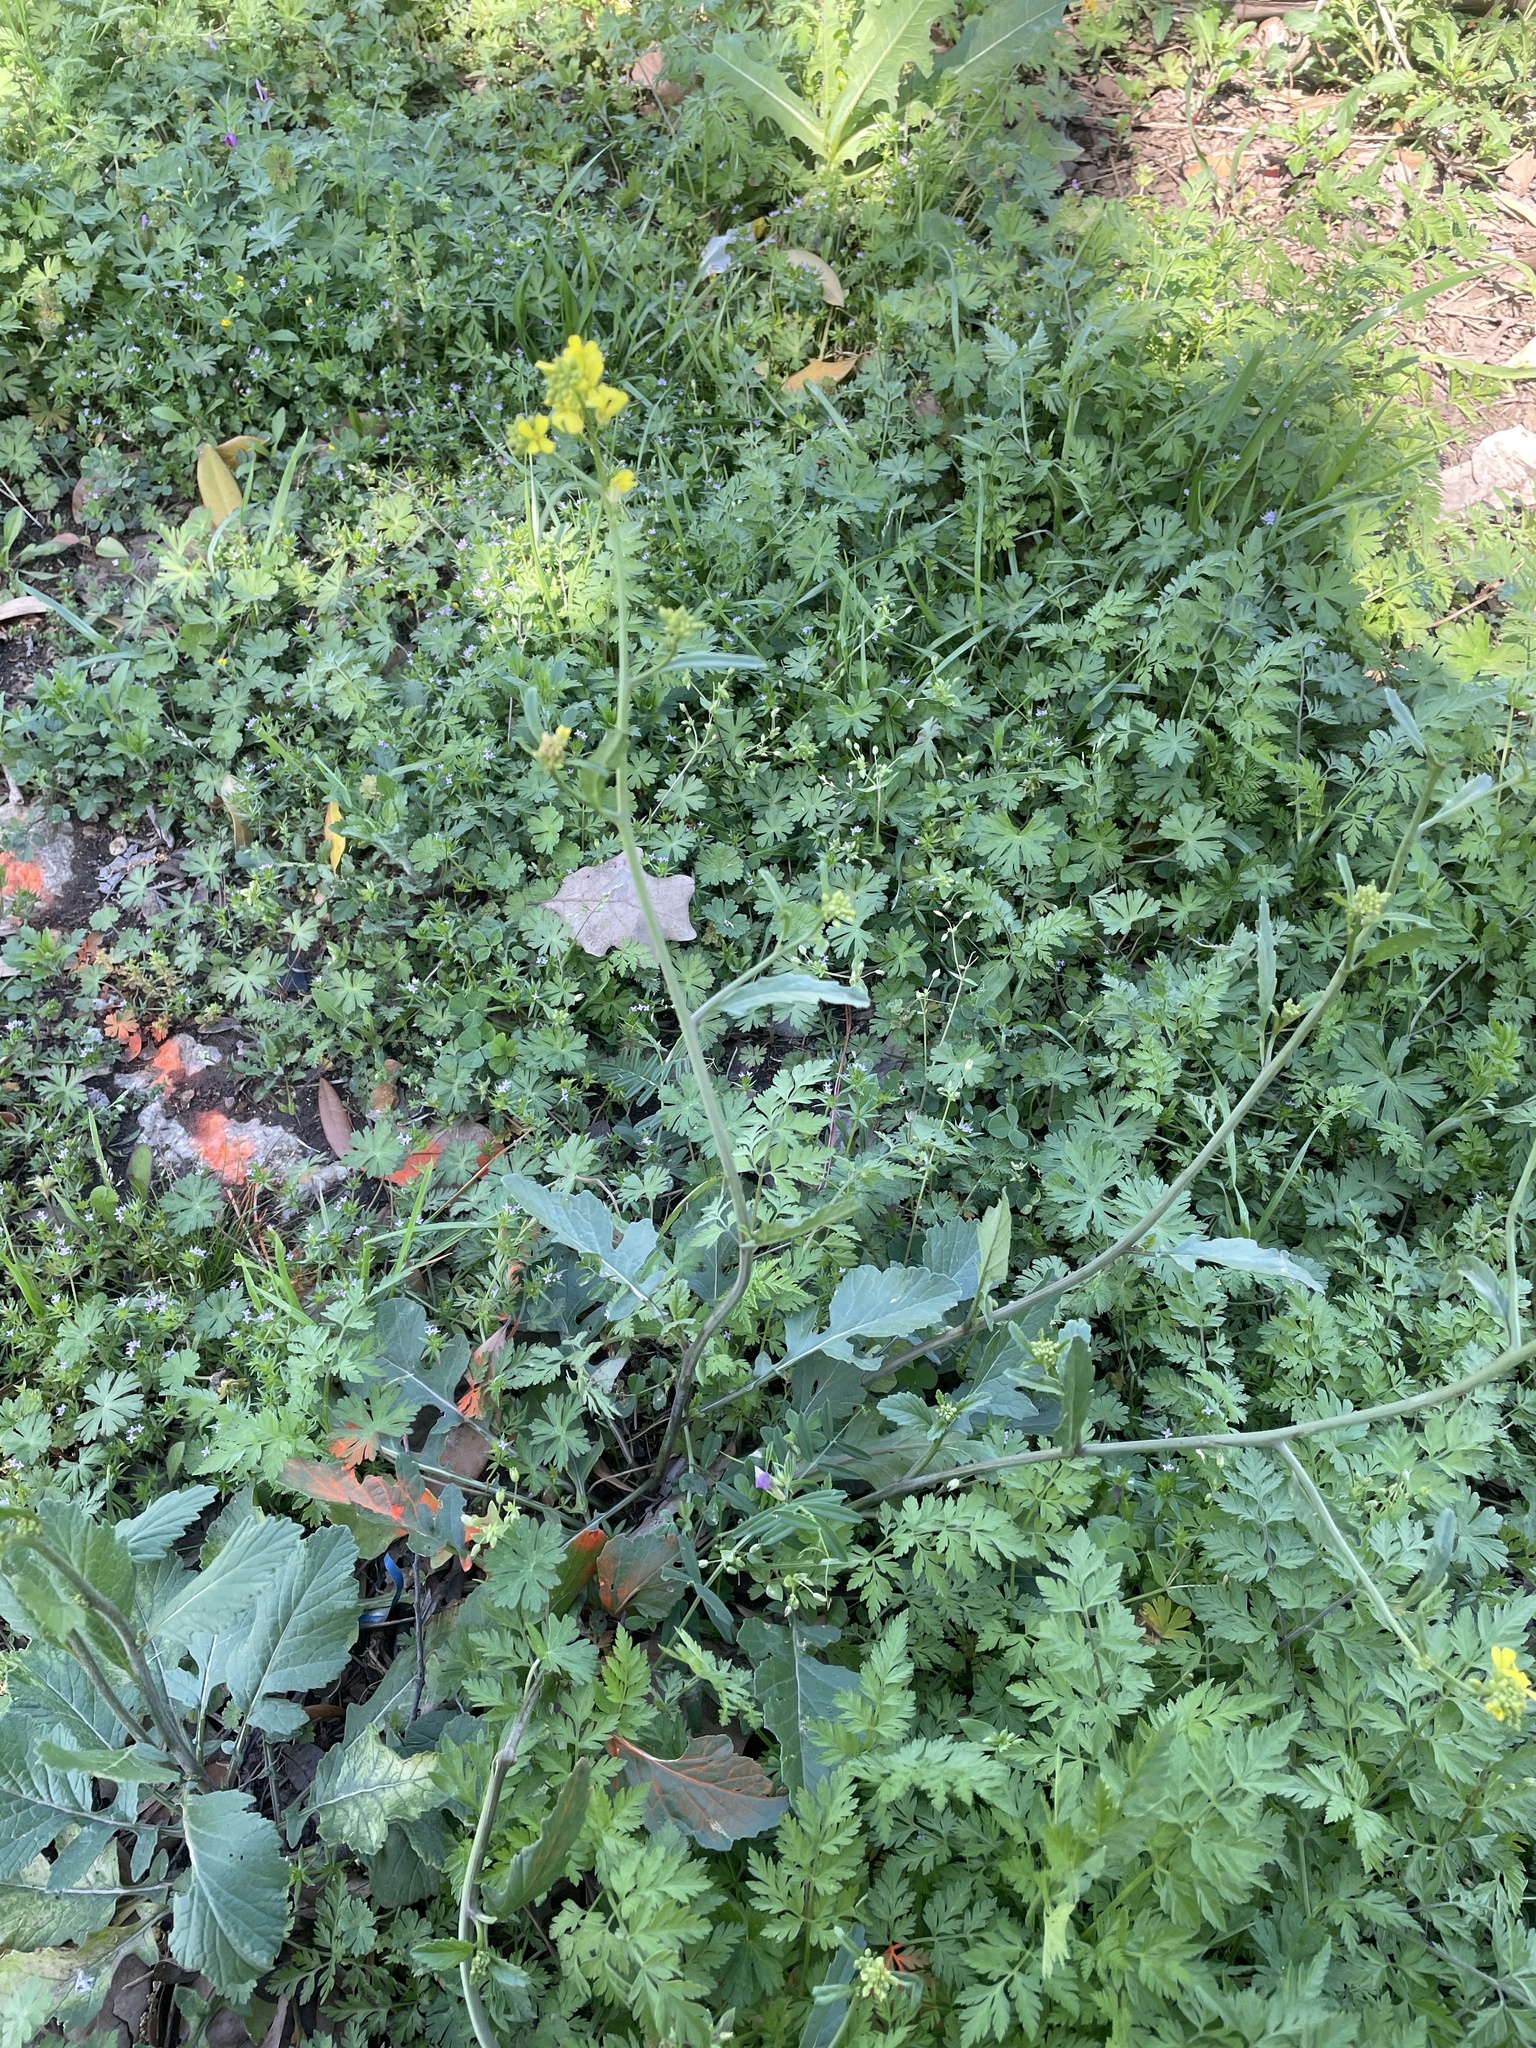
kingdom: Plantae
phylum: Tracheophyta
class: Magnoliopsida
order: Brassicales
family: Brassicaceae
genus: Rapistrum
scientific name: Rapistrum rugosum
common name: Annual bastardcabbage
